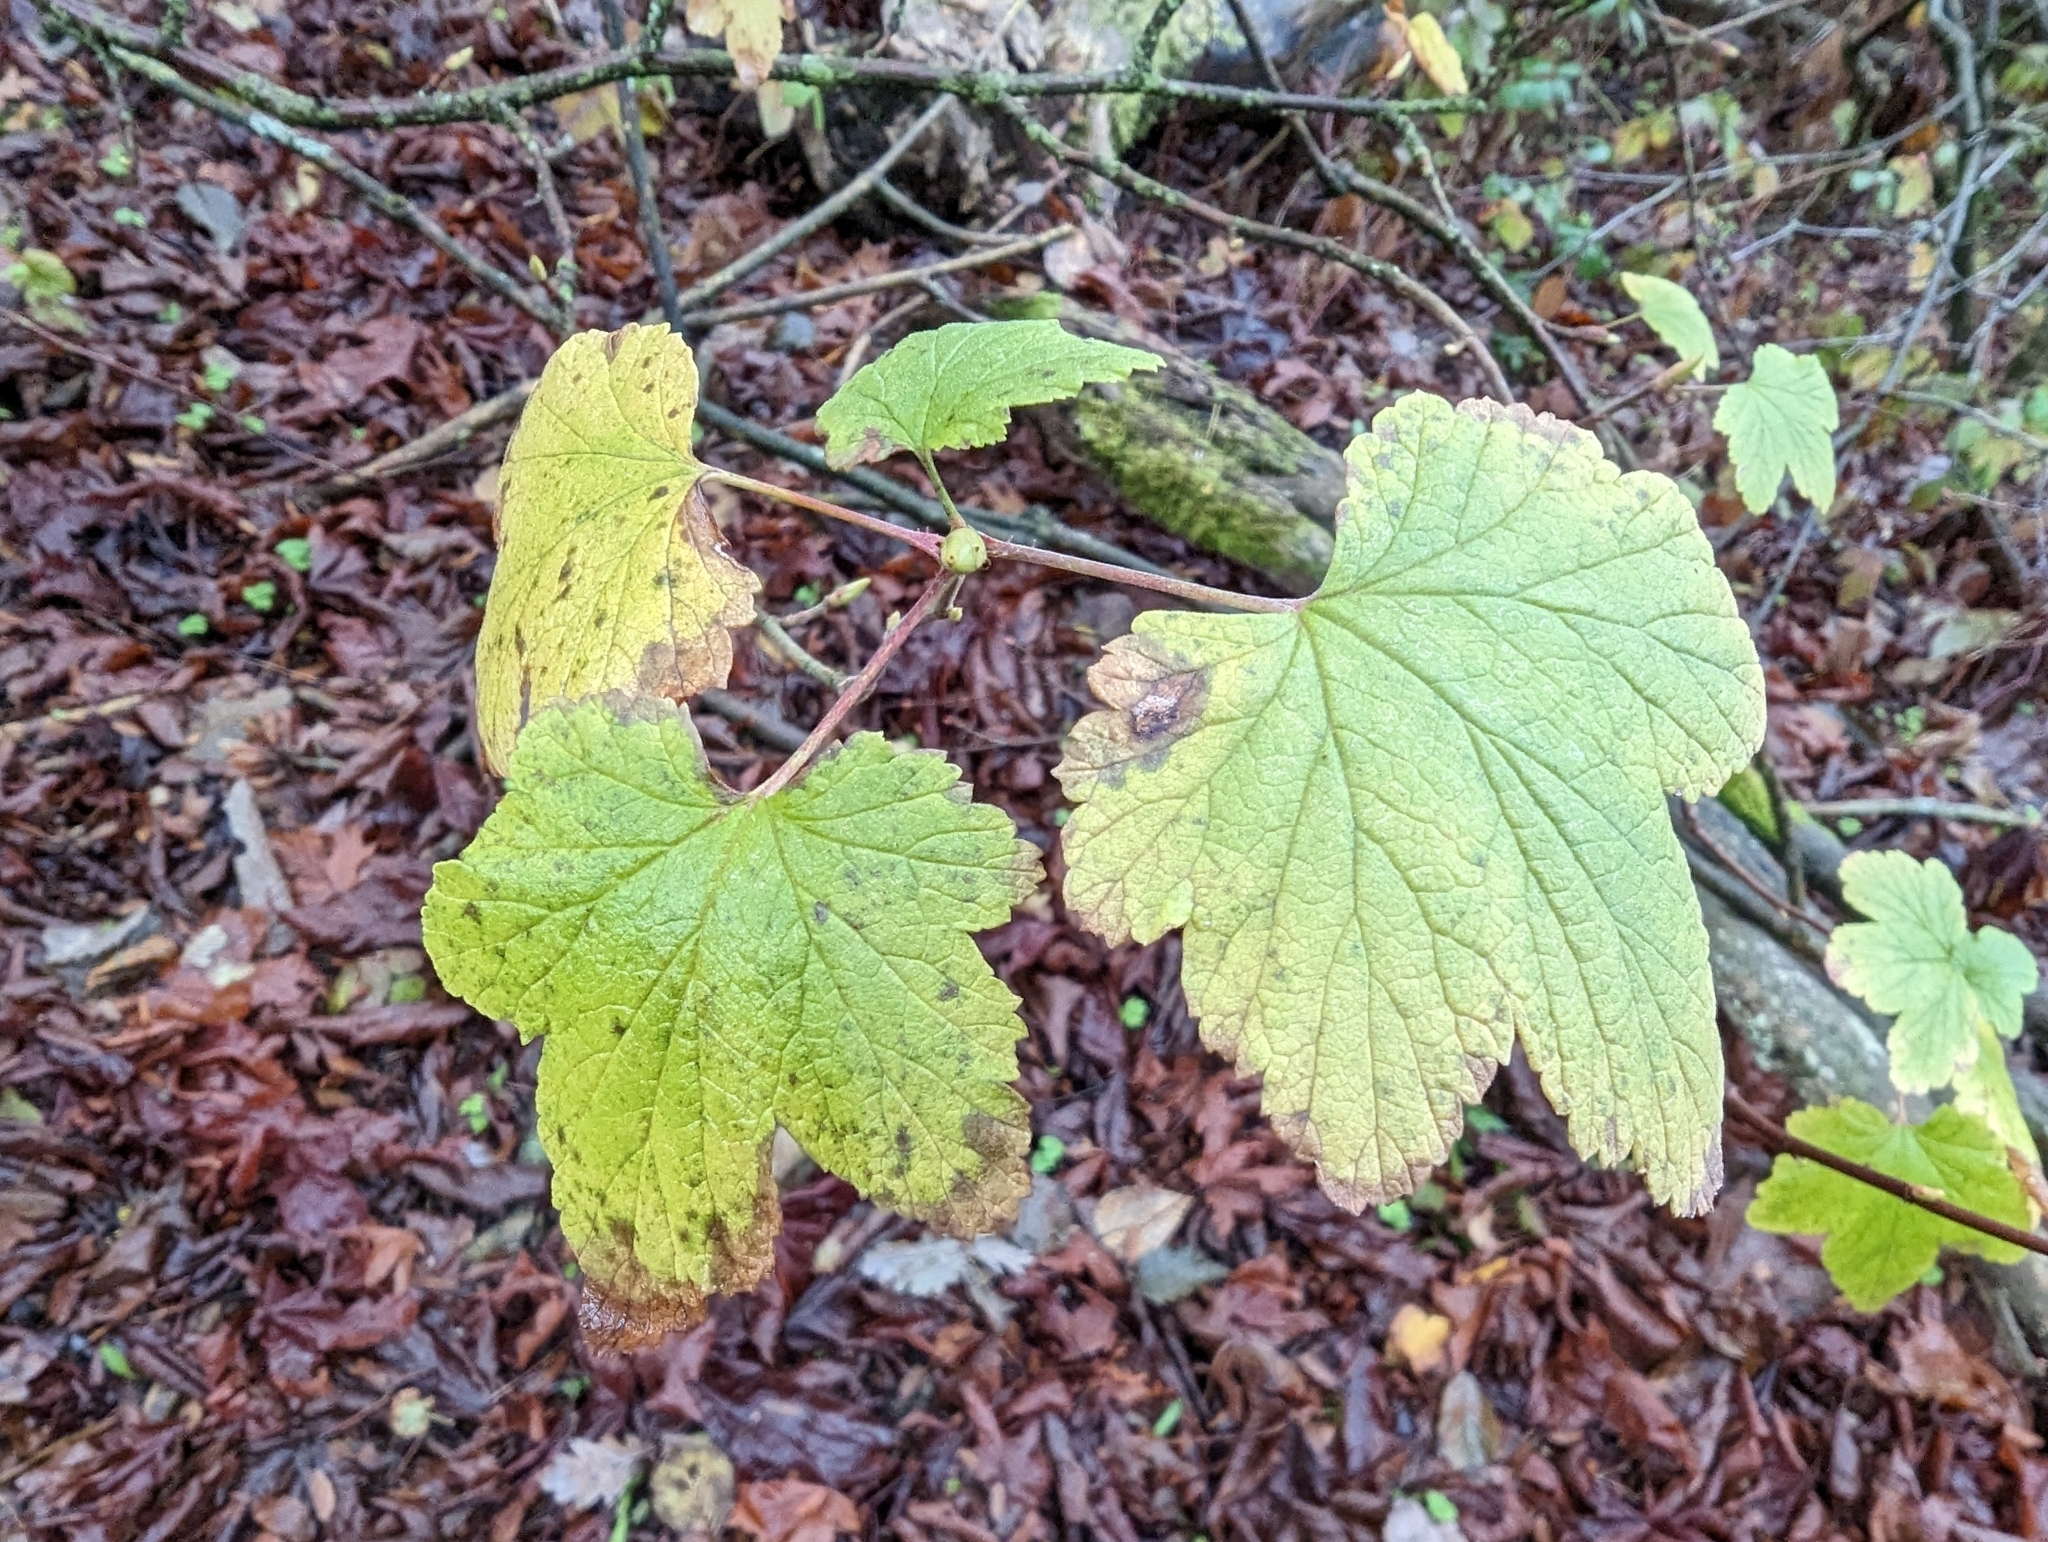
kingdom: Plantae
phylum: Tracheophyta
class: Magnoliopsida
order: Saxifragales
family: Grossulariaceae
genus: Ribes
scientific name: Ribes sanguineum
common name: Flowering currant
